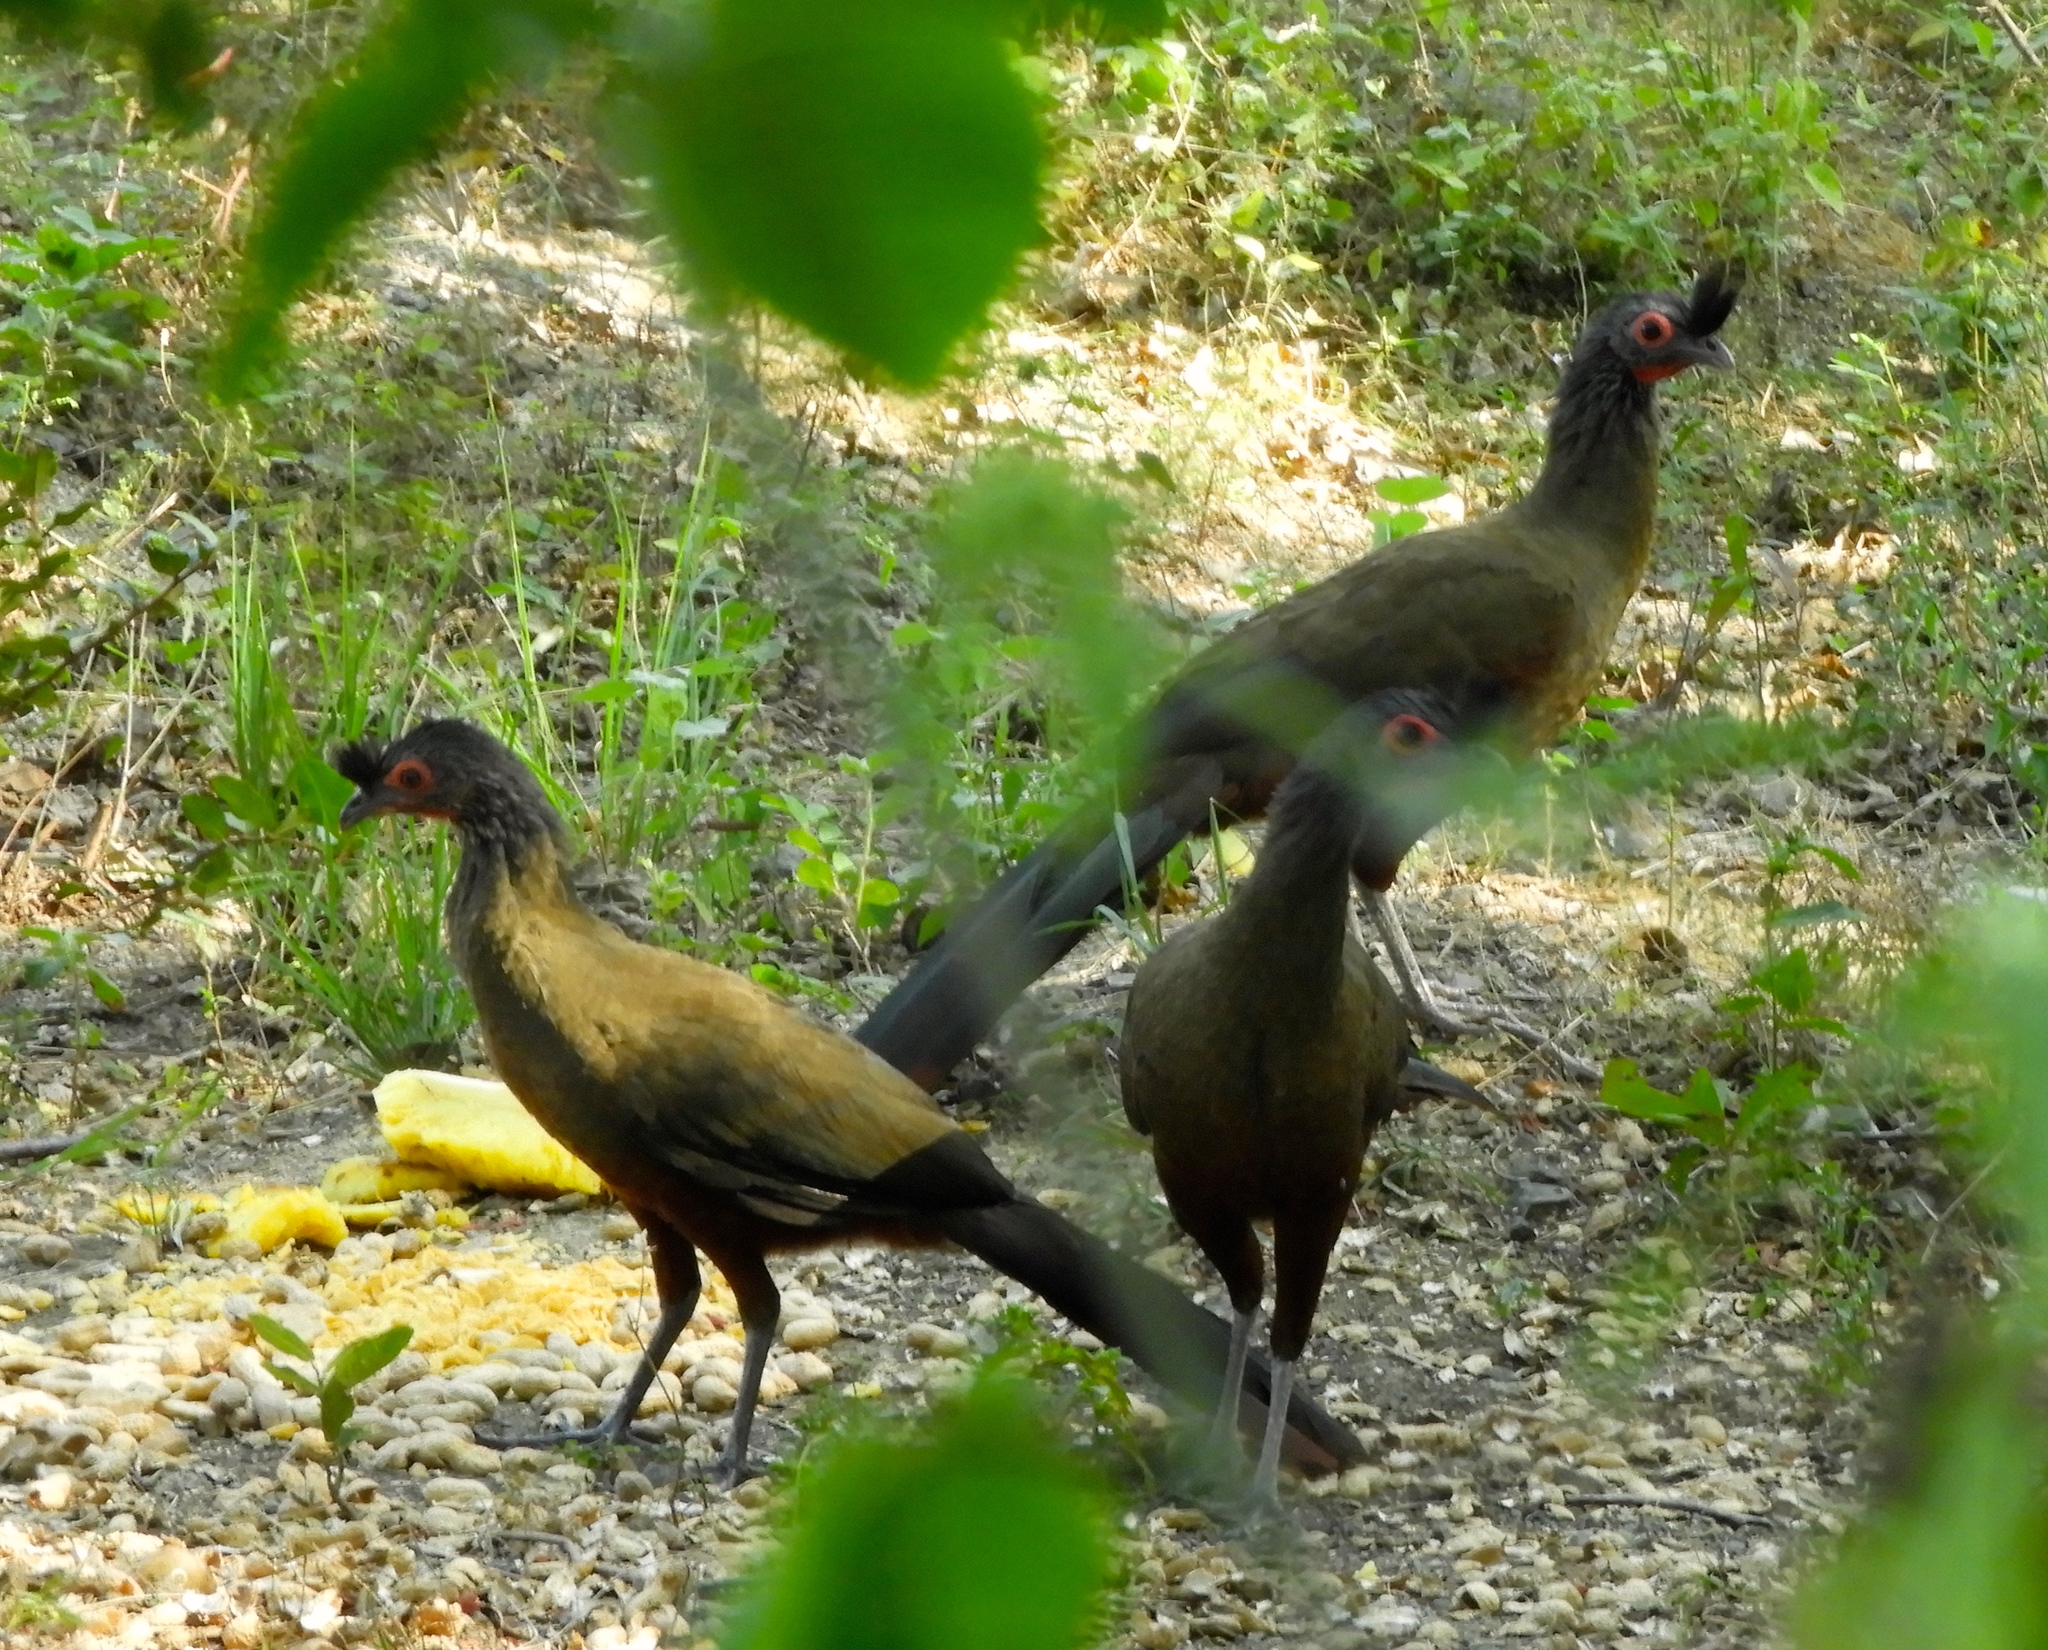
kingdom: Animalia
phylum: Chordata
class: Aves
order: Galliformes
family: Cracidae
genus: Ortalis
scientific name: Ortalis wagleri
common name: Rufous-bellied chachalaca
